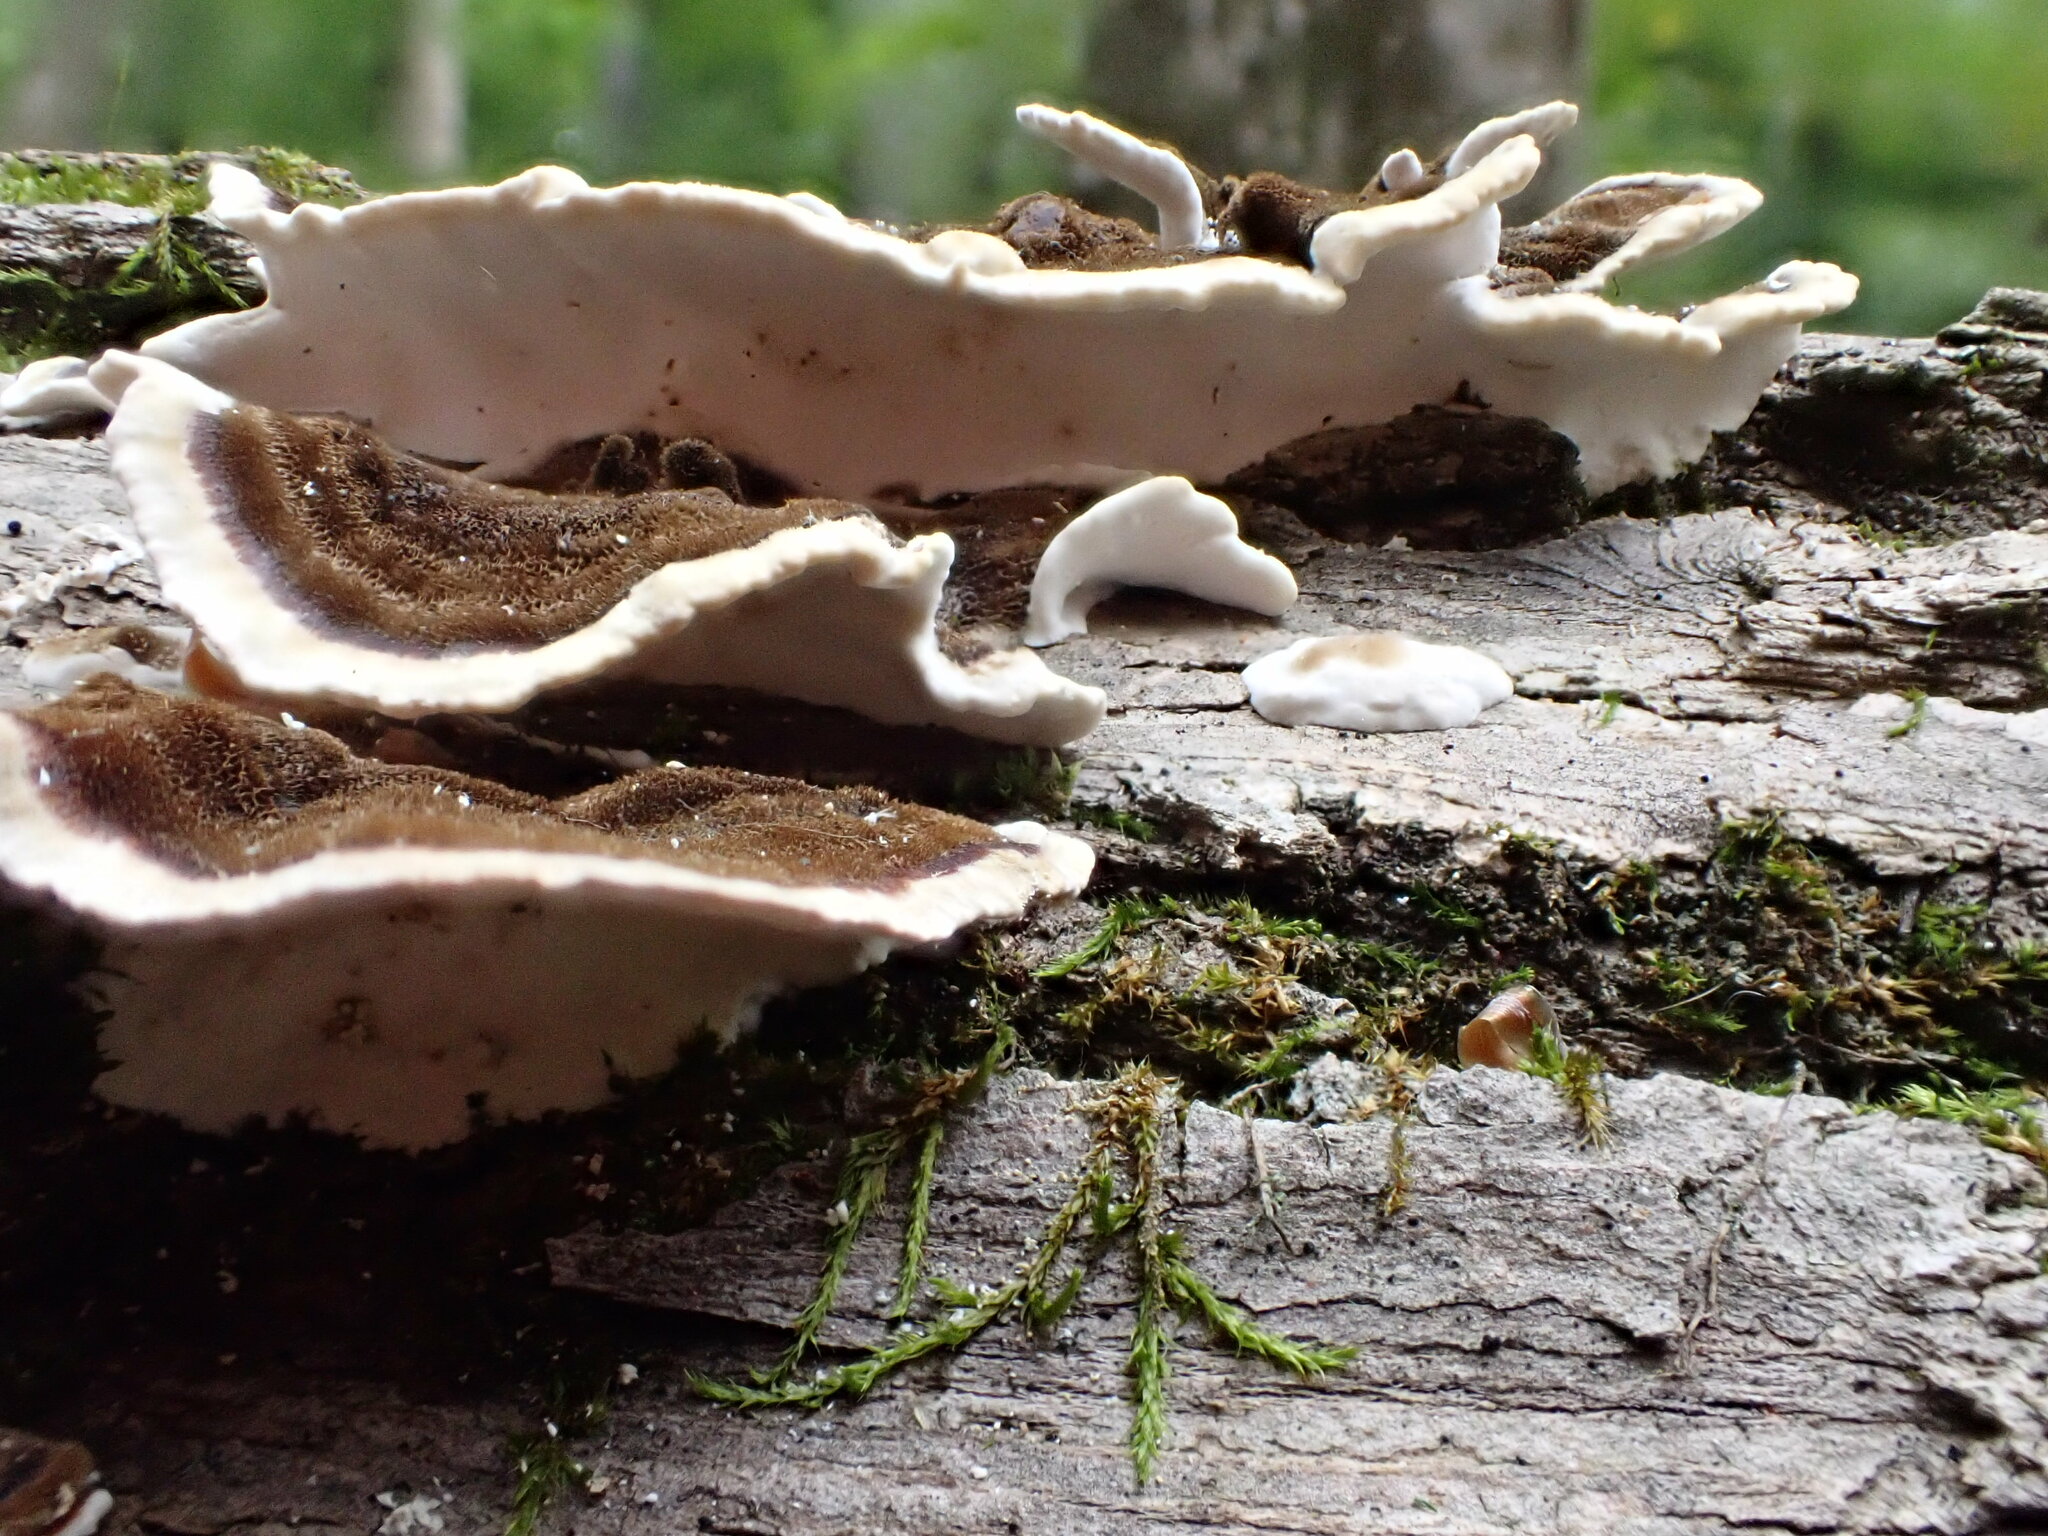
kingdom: Fungi
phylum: Basidiomycota
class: Agaricomycetes
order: Polyporales
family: Polyporaceae
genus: Trametes
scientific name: Trametes versicolor
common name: Turkeytail
